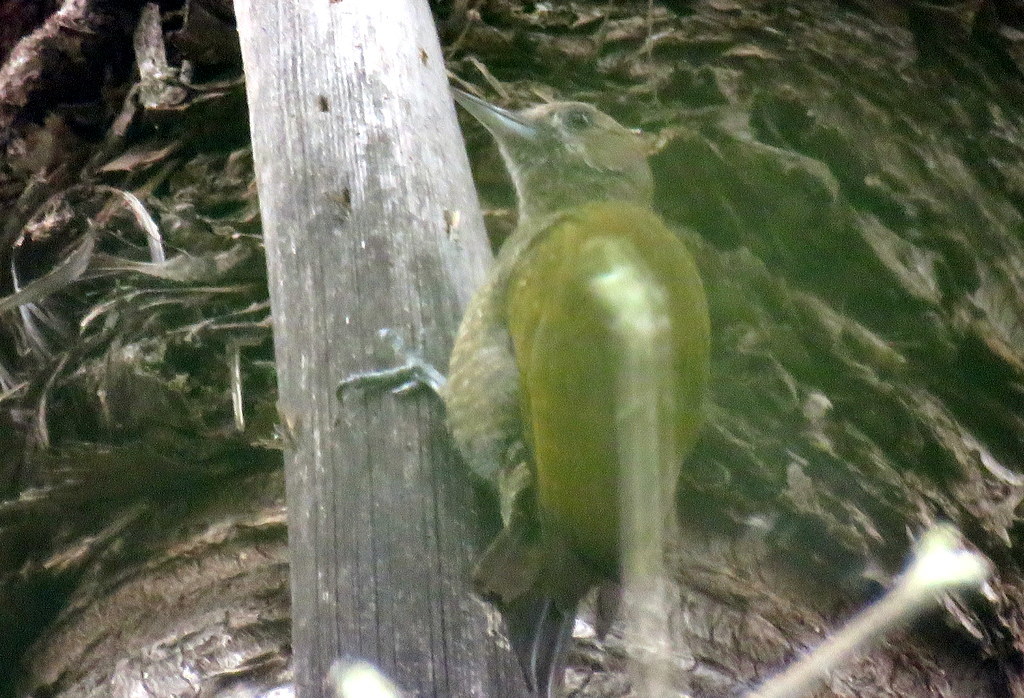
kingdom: Animalia
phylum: Chordata
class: Aves
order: Piciformes
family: Picidae
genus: Veniliornis
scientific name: Veniliornis passerinus
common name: Little woodpecker
